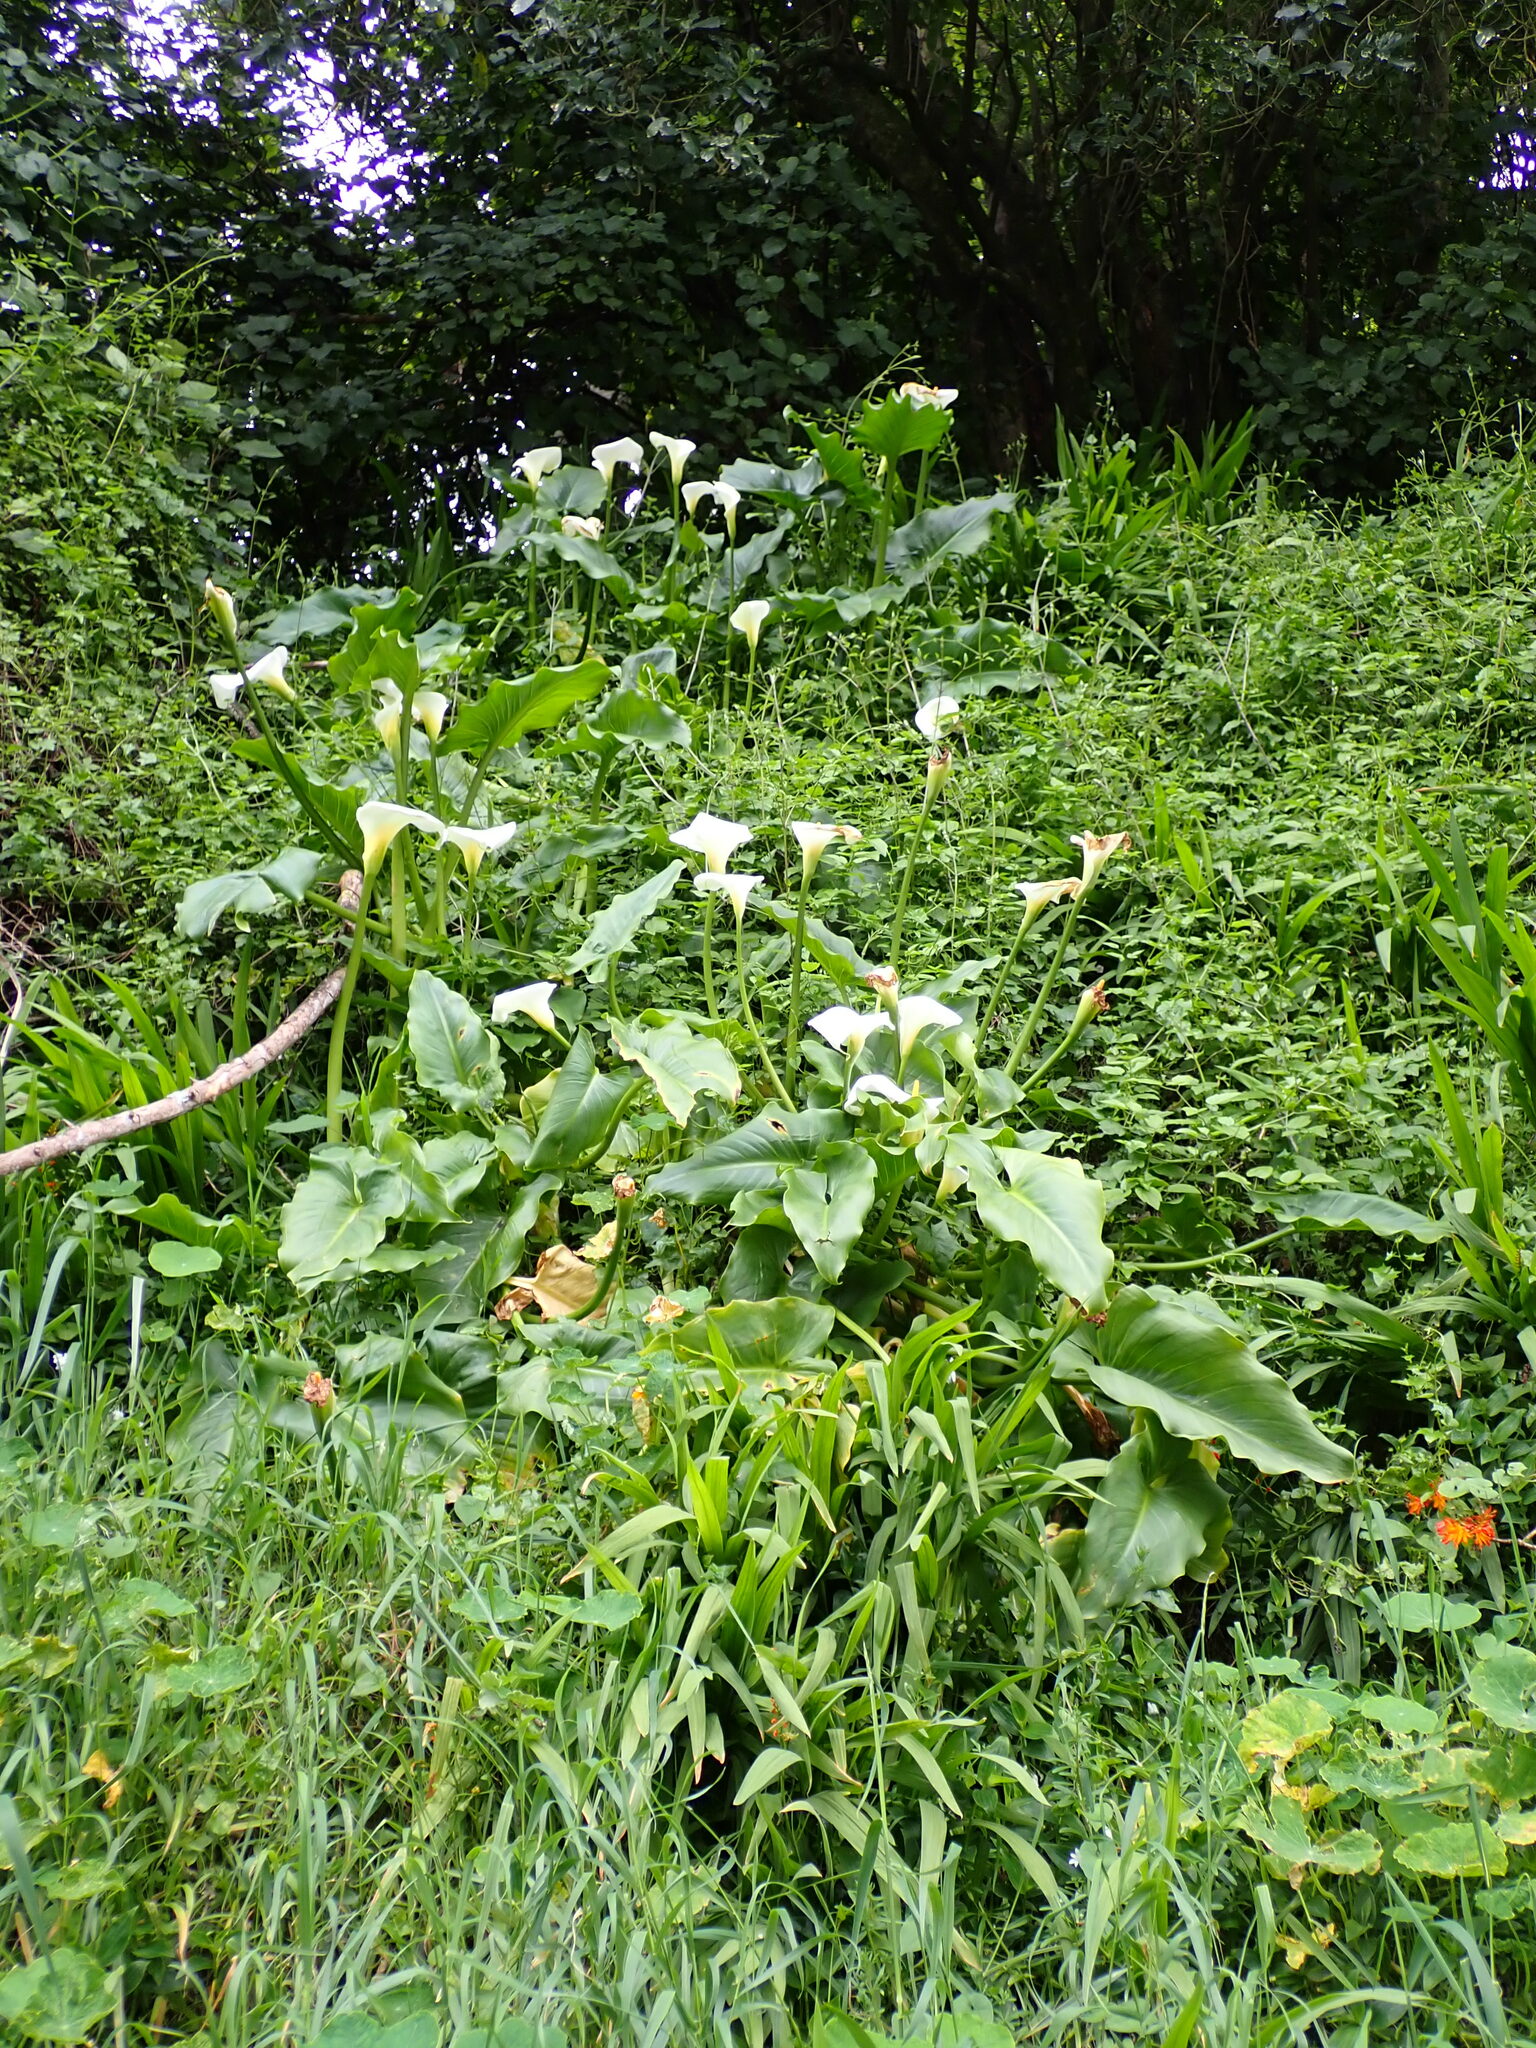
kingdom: Plantae
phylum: Tracheophyta
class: Liliopsida
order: Alismatales
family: Araceae
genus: Zantedeschia
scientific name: Zantedeschia aethiopica
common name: Altar-lily
